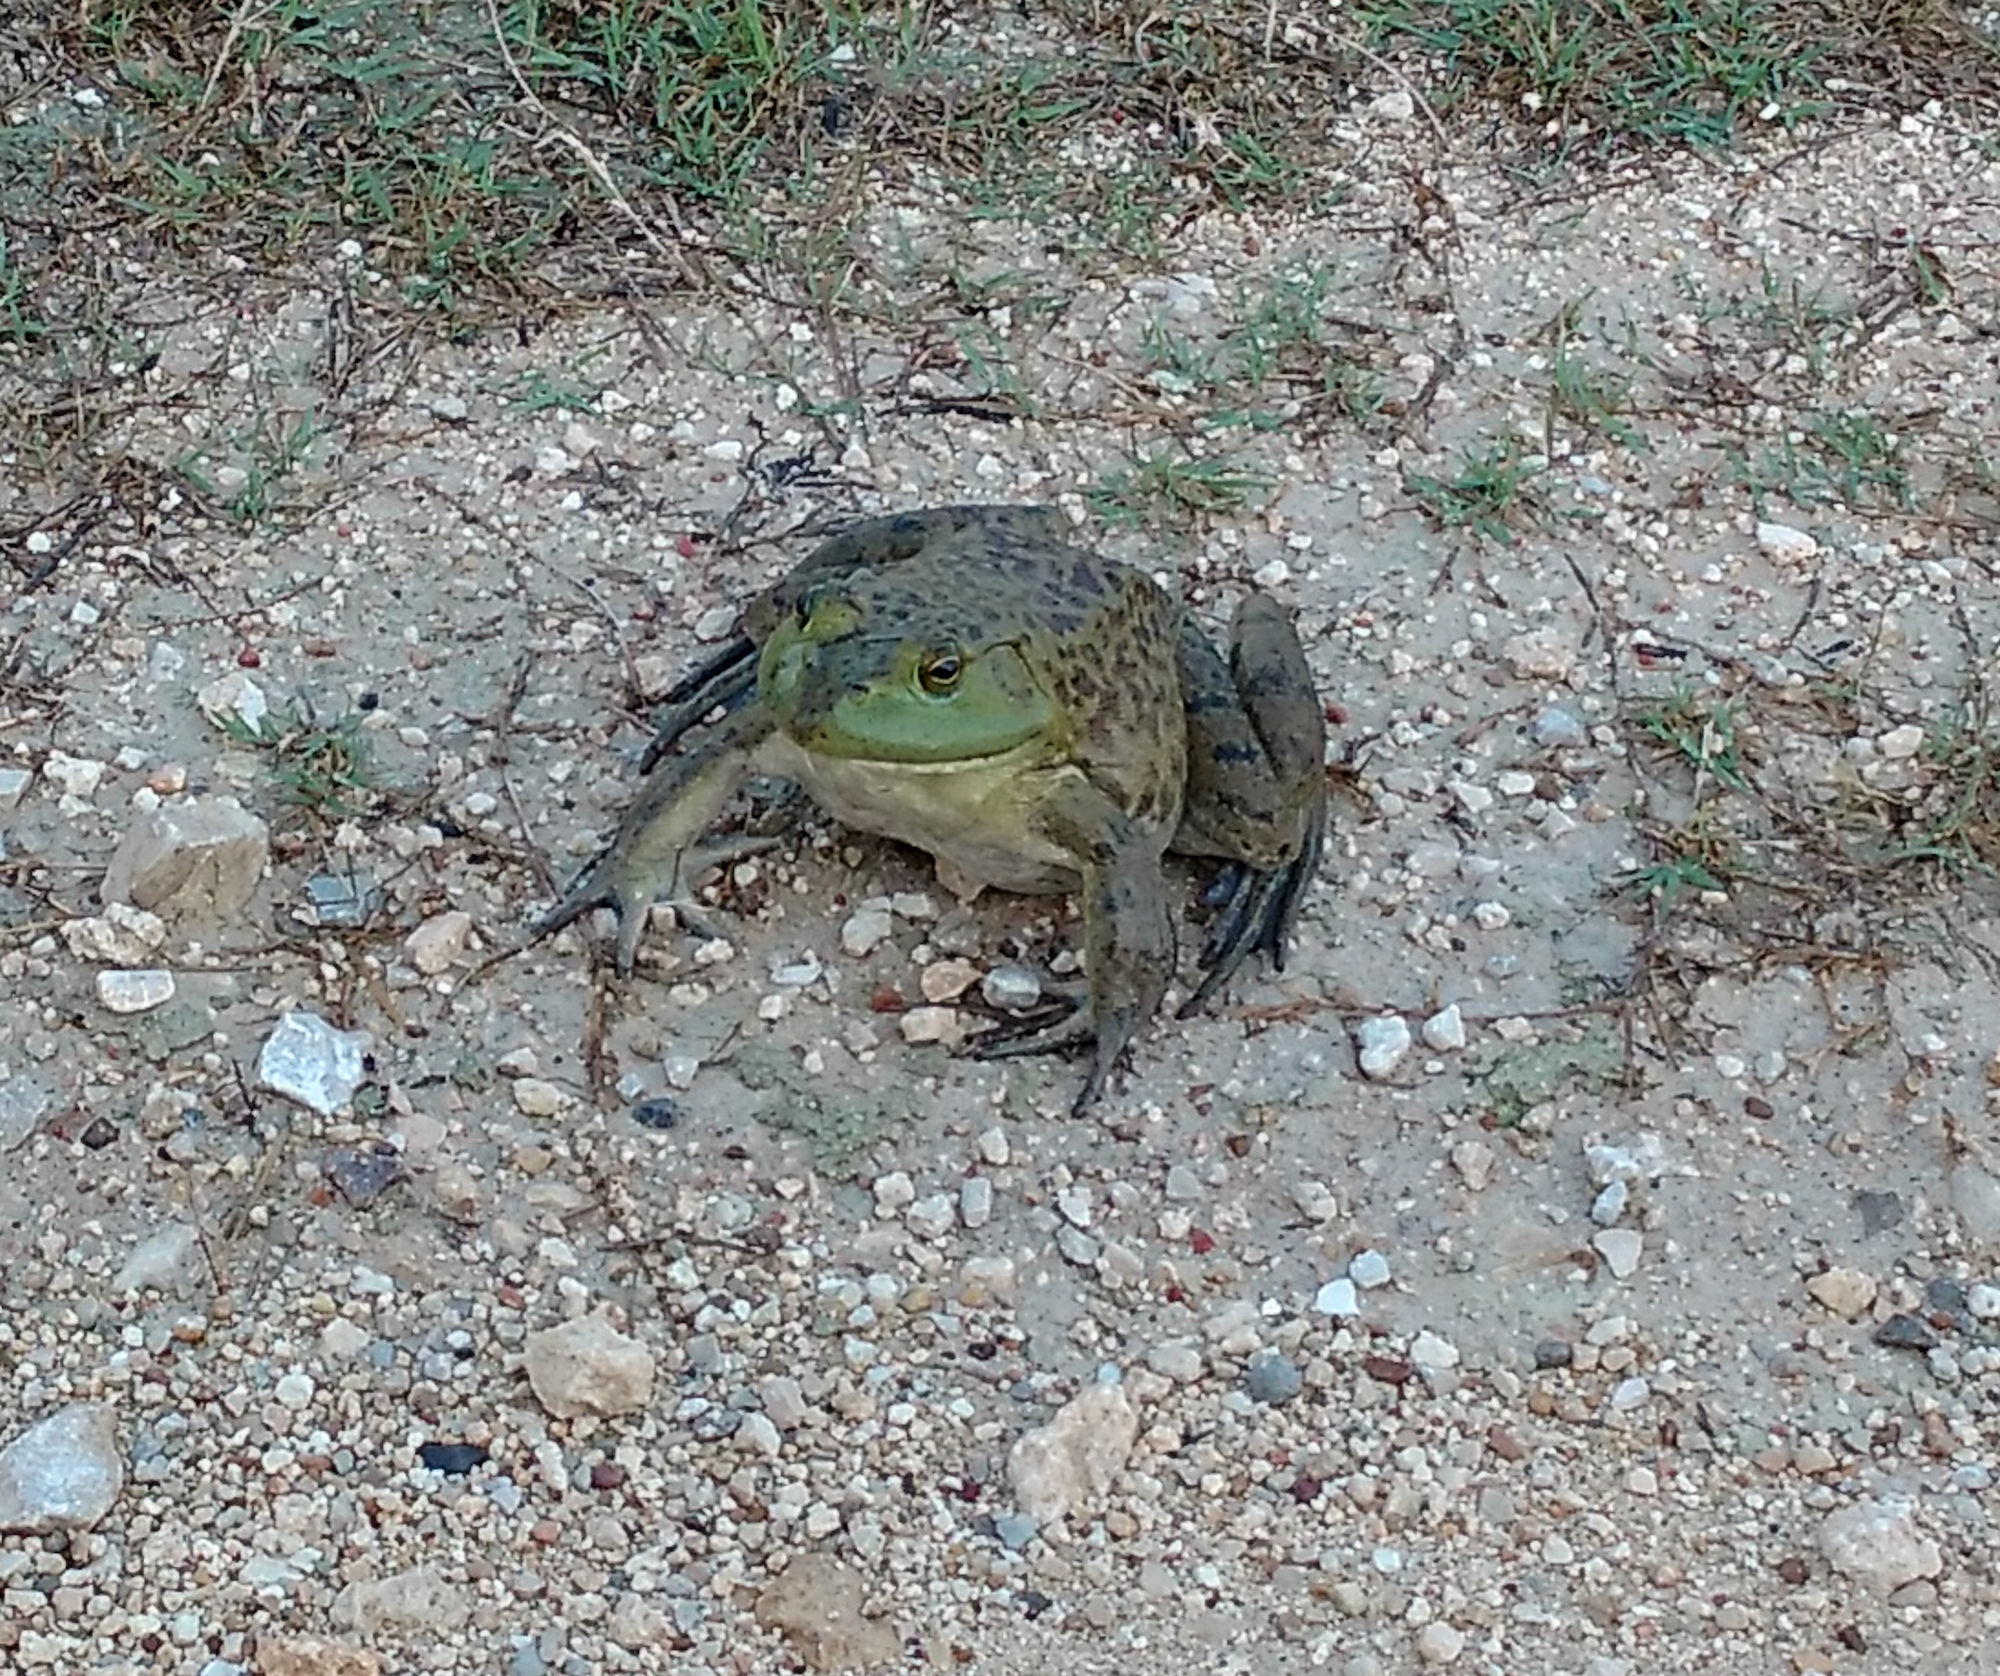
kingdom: Animalia
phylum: Chordata
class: Amphibia
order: Anura
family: Ranidae
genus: Lithobates
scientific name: Lithobates catesbeianus
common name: American bullfrog
